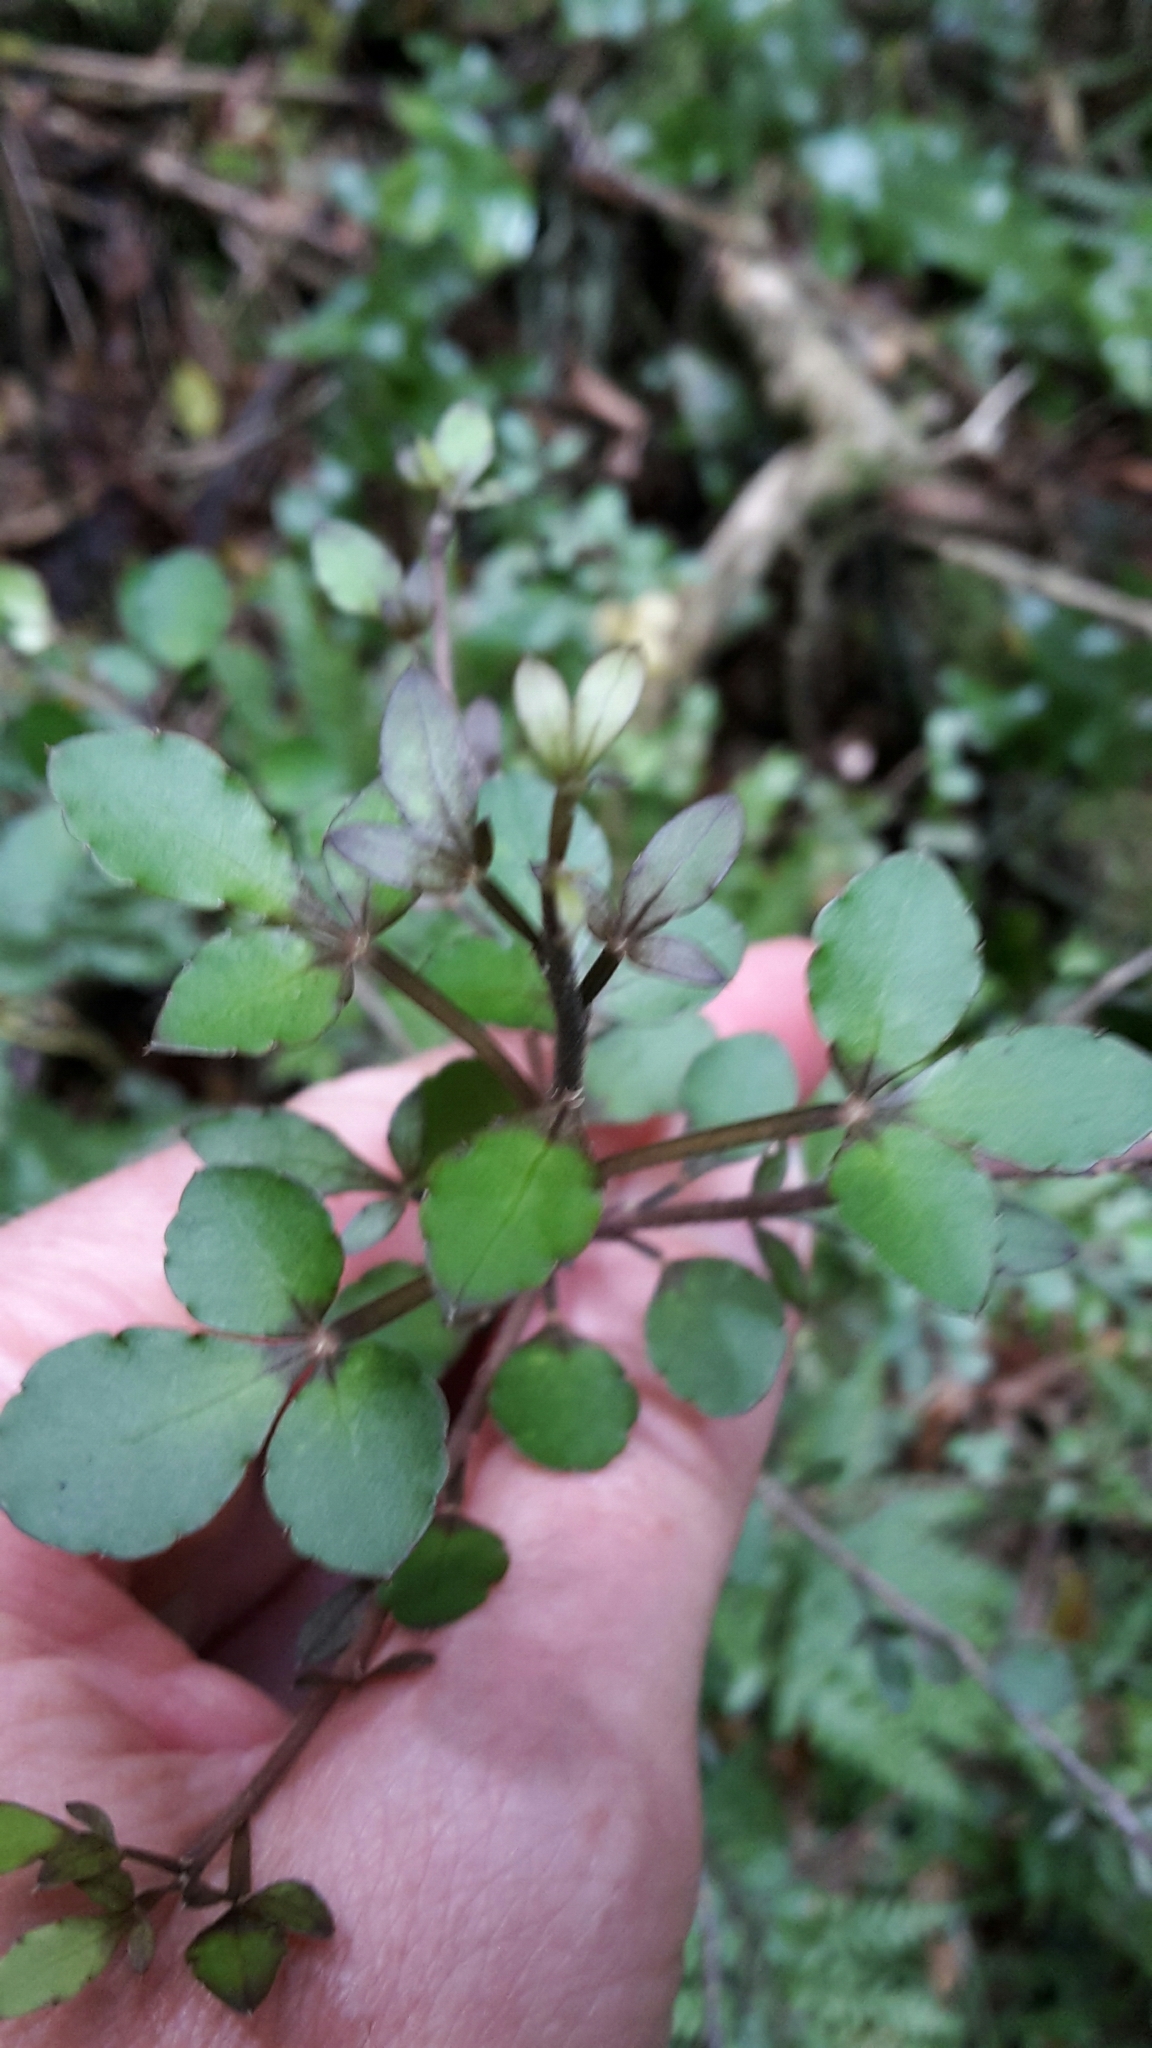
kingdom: Plantae
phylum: Tracheophyta
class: Magnoliopsida
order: Apiales
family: Araliaceae
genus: Raukaua
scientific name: Raukaua anomalus
